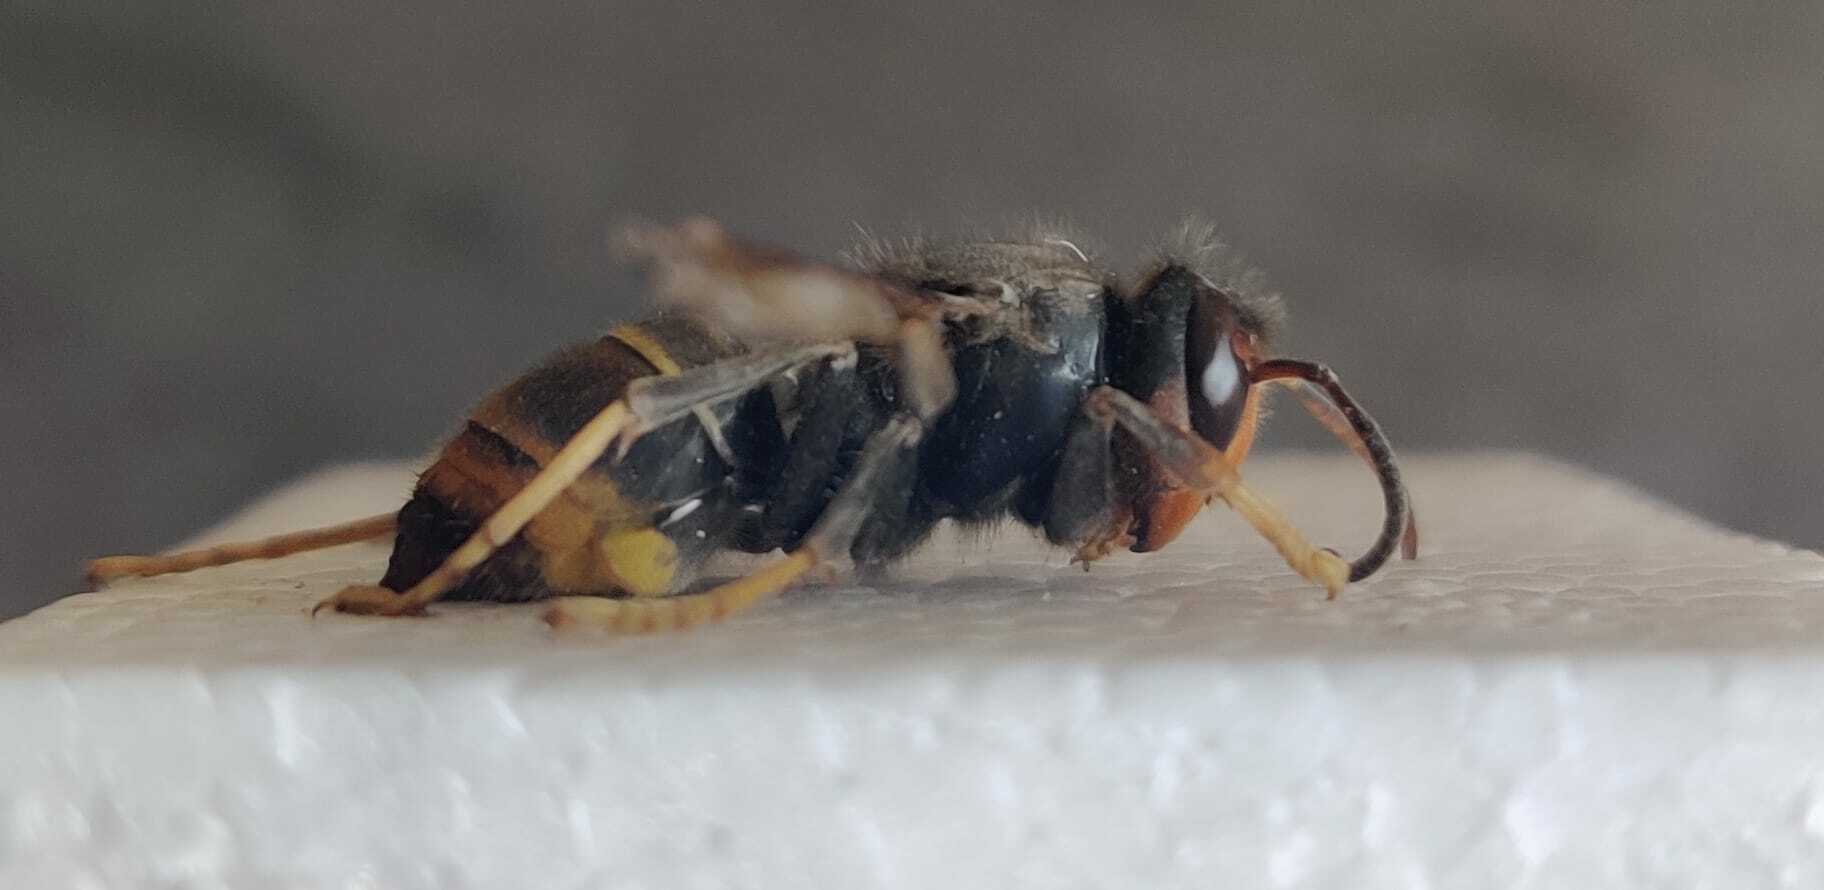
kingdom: Animalia
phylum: Arthropoda
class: Insecta
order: Hymenoptera
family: Vespidae
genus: Vespa
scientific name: Vespa velutina
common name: Asian hornet
